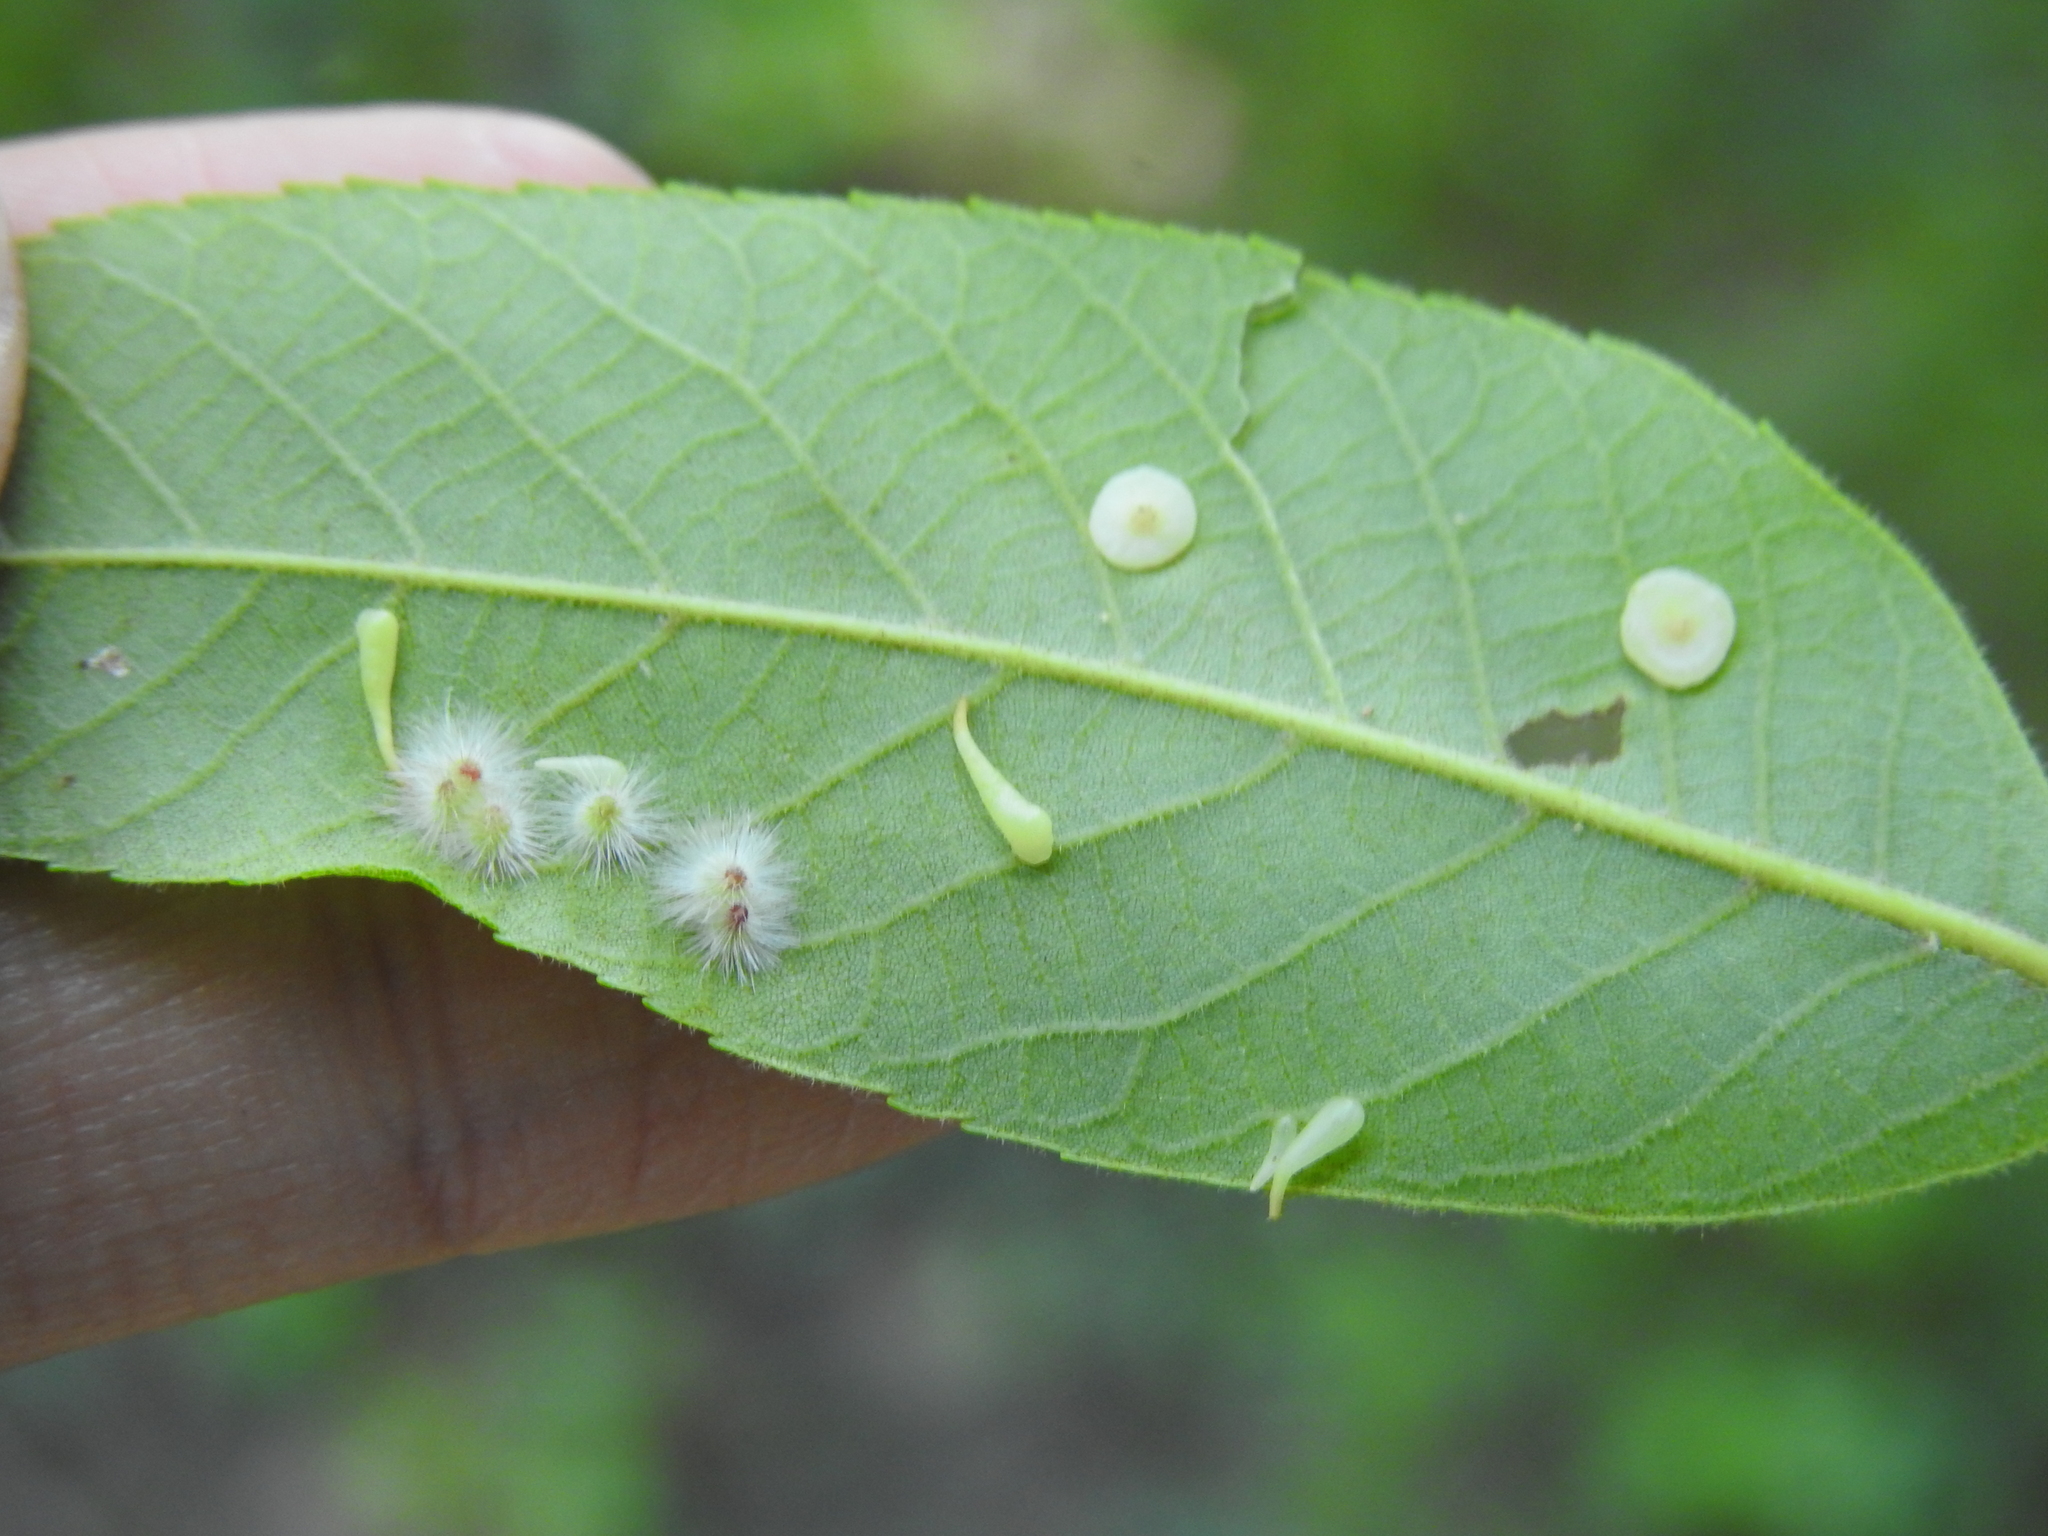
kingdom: Animalia
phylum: Arthropoda
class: Insecta
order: Diptera
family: Cecidomyiidae
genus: Caryomyia
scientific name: Caryomyia
